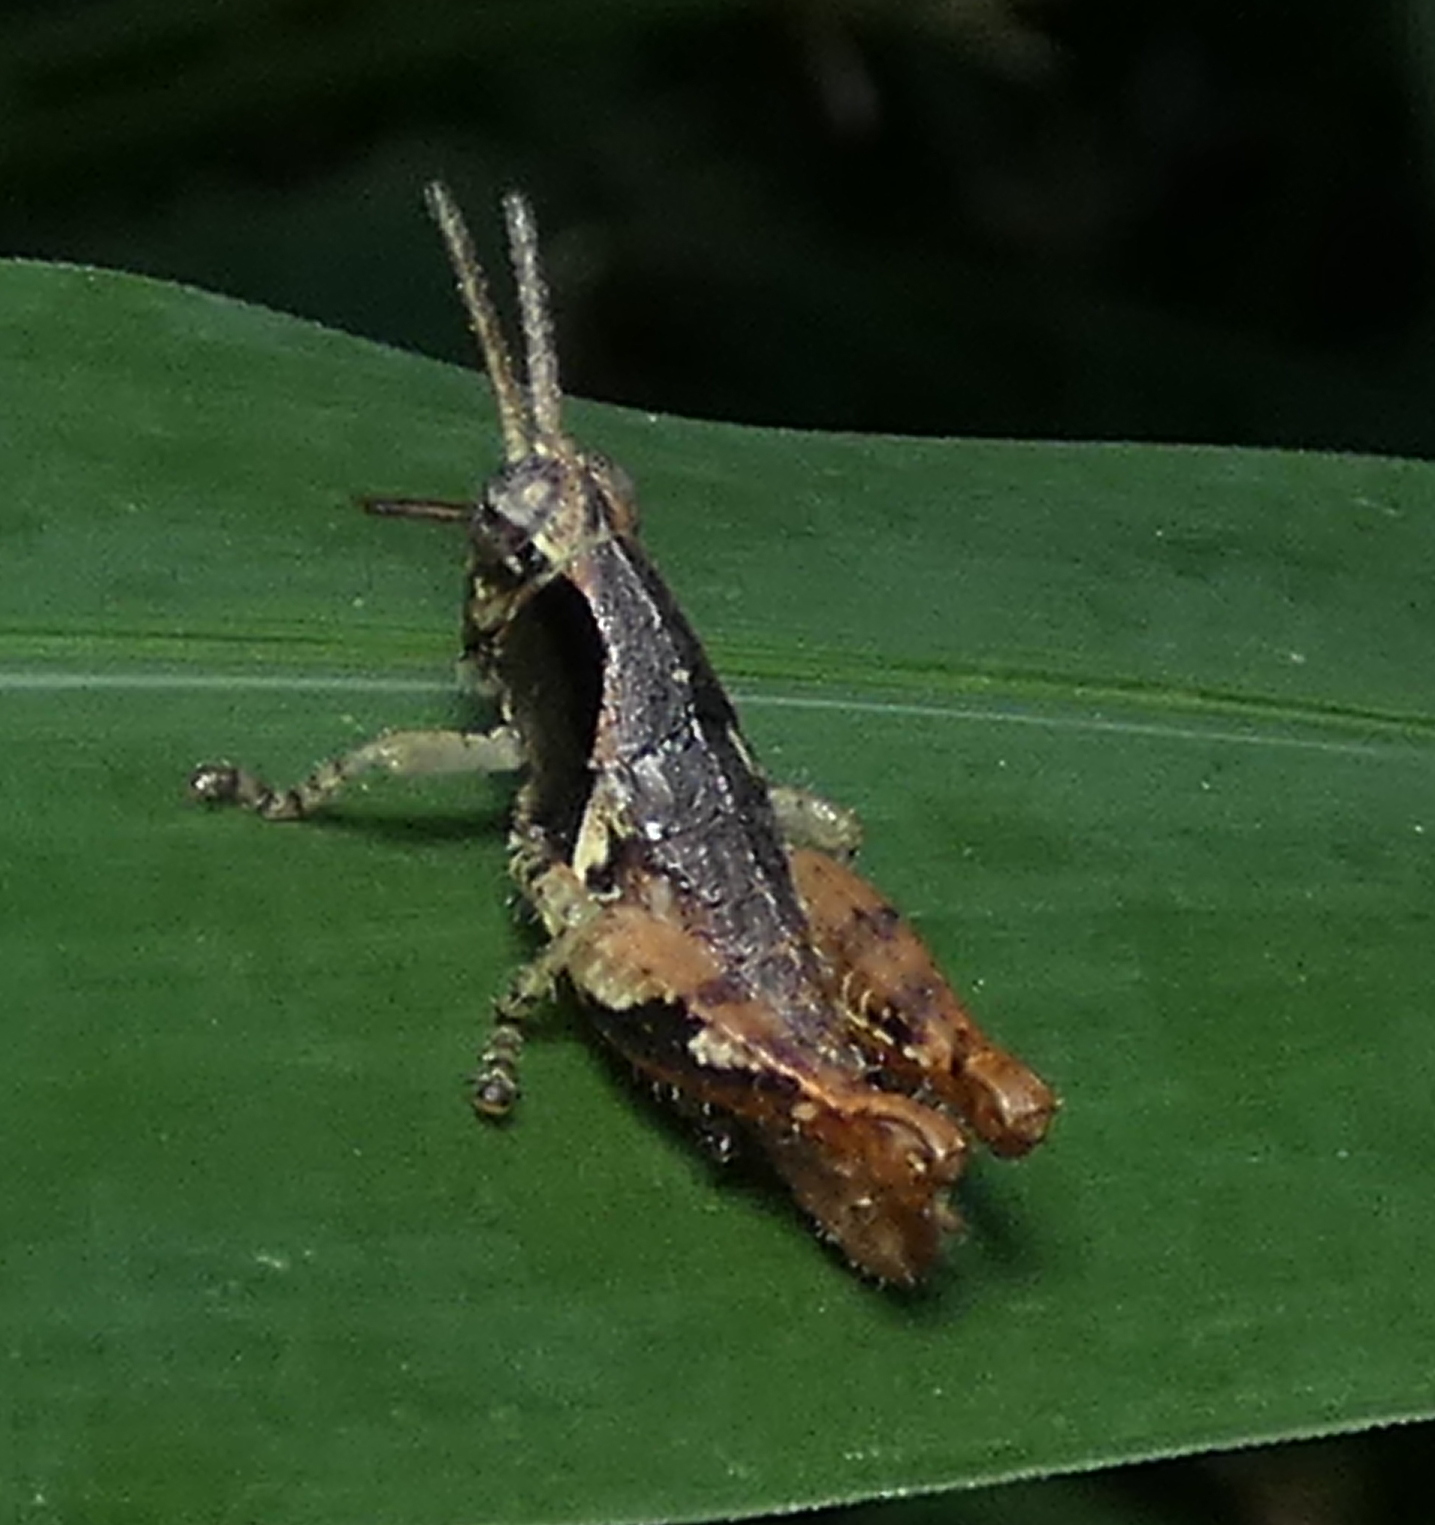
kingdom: Animalia
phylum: Arthropoda
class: Insecta
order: Orthoptera
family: Acrididae
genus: Eujivarus
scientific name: Eujivarus meridionalis
